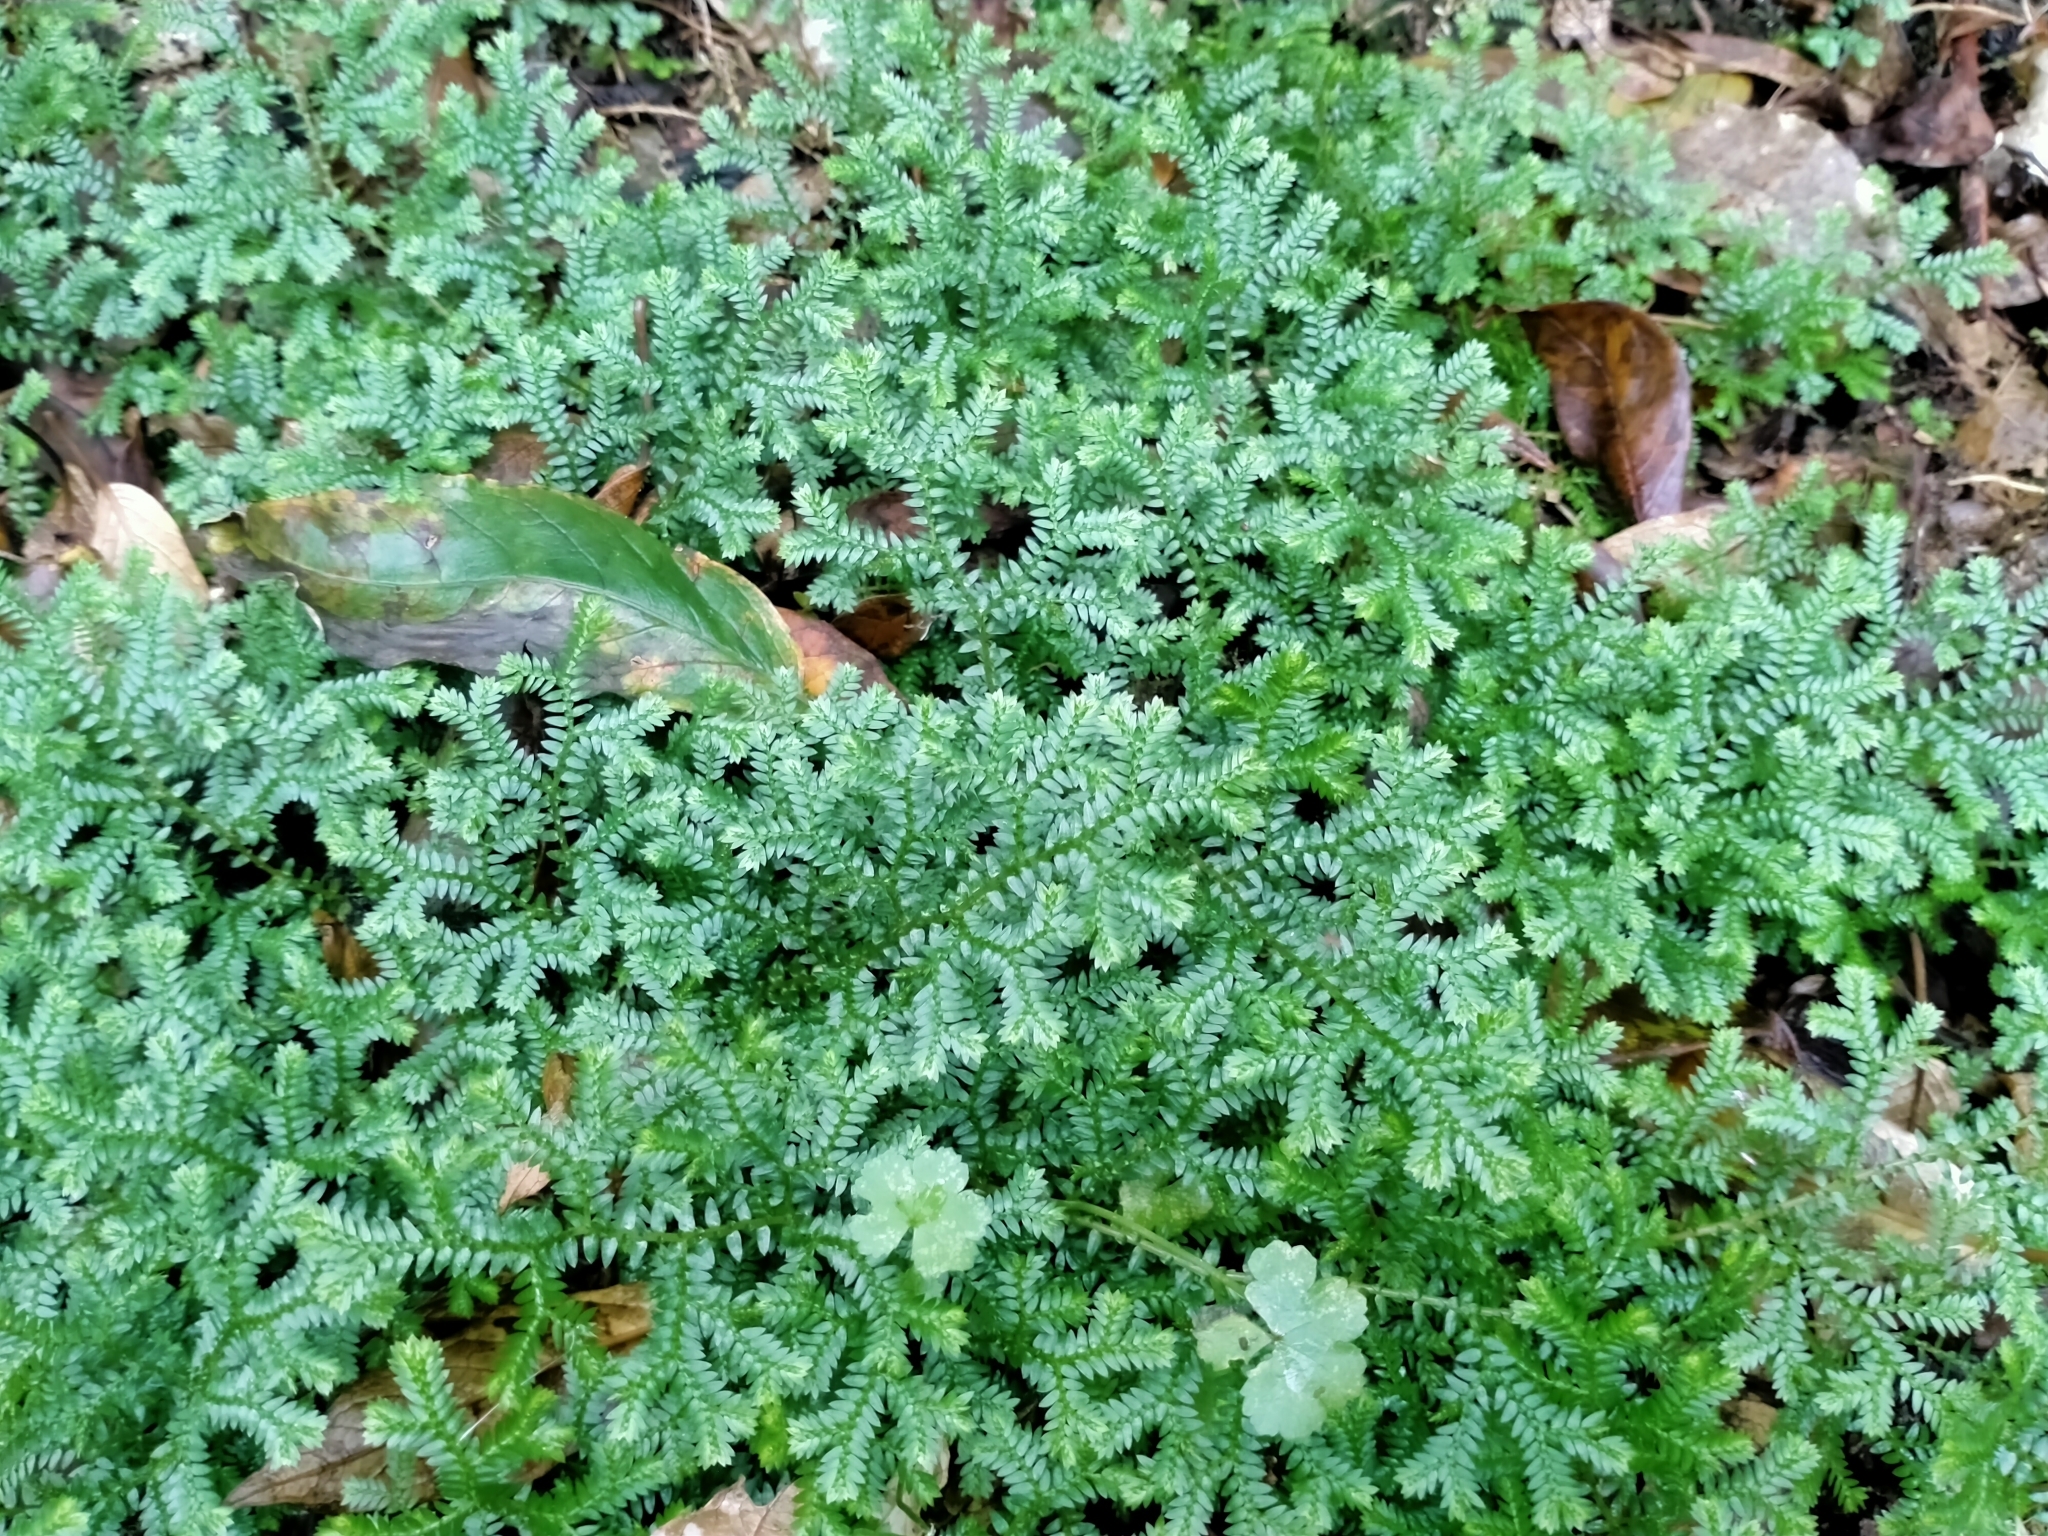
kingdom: Plantae
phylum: Tracheophyta
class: Lycopodiopsida
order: Selaginellales
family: Selaginellaceae
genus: Selaginella
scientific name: Selaginella kraussiana
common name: Krauss' spikemoss
